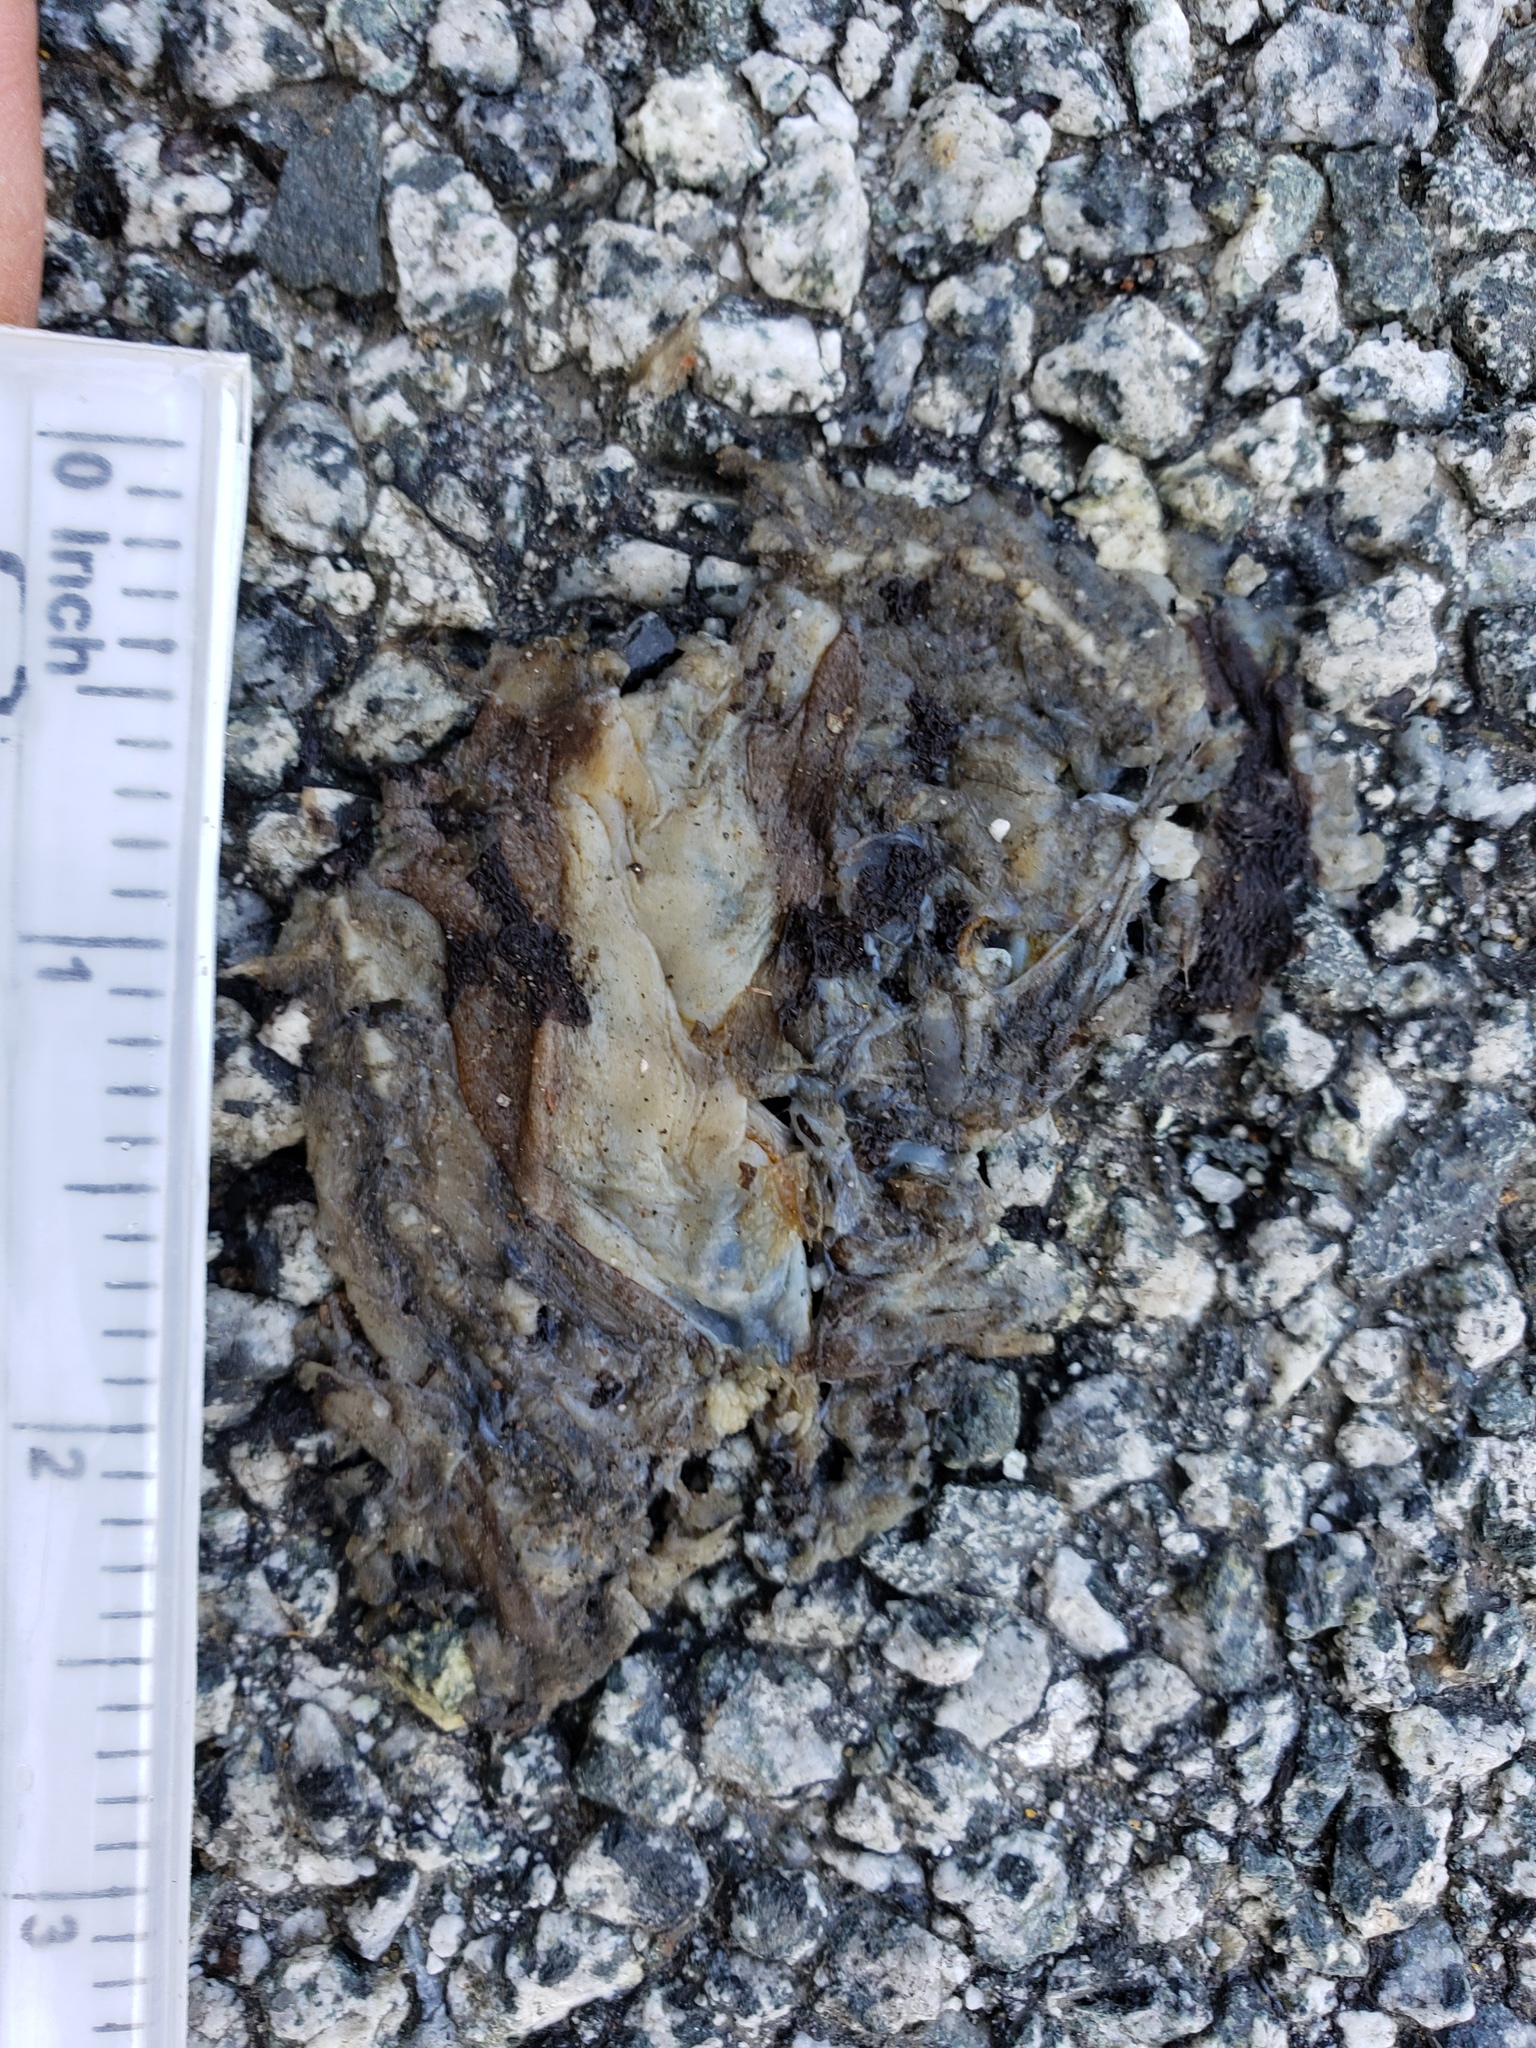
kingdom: Animalia
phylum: Chordata
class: Amphibia
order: Caudata
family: Salamandridae
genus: Taricha
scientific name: Taricha
